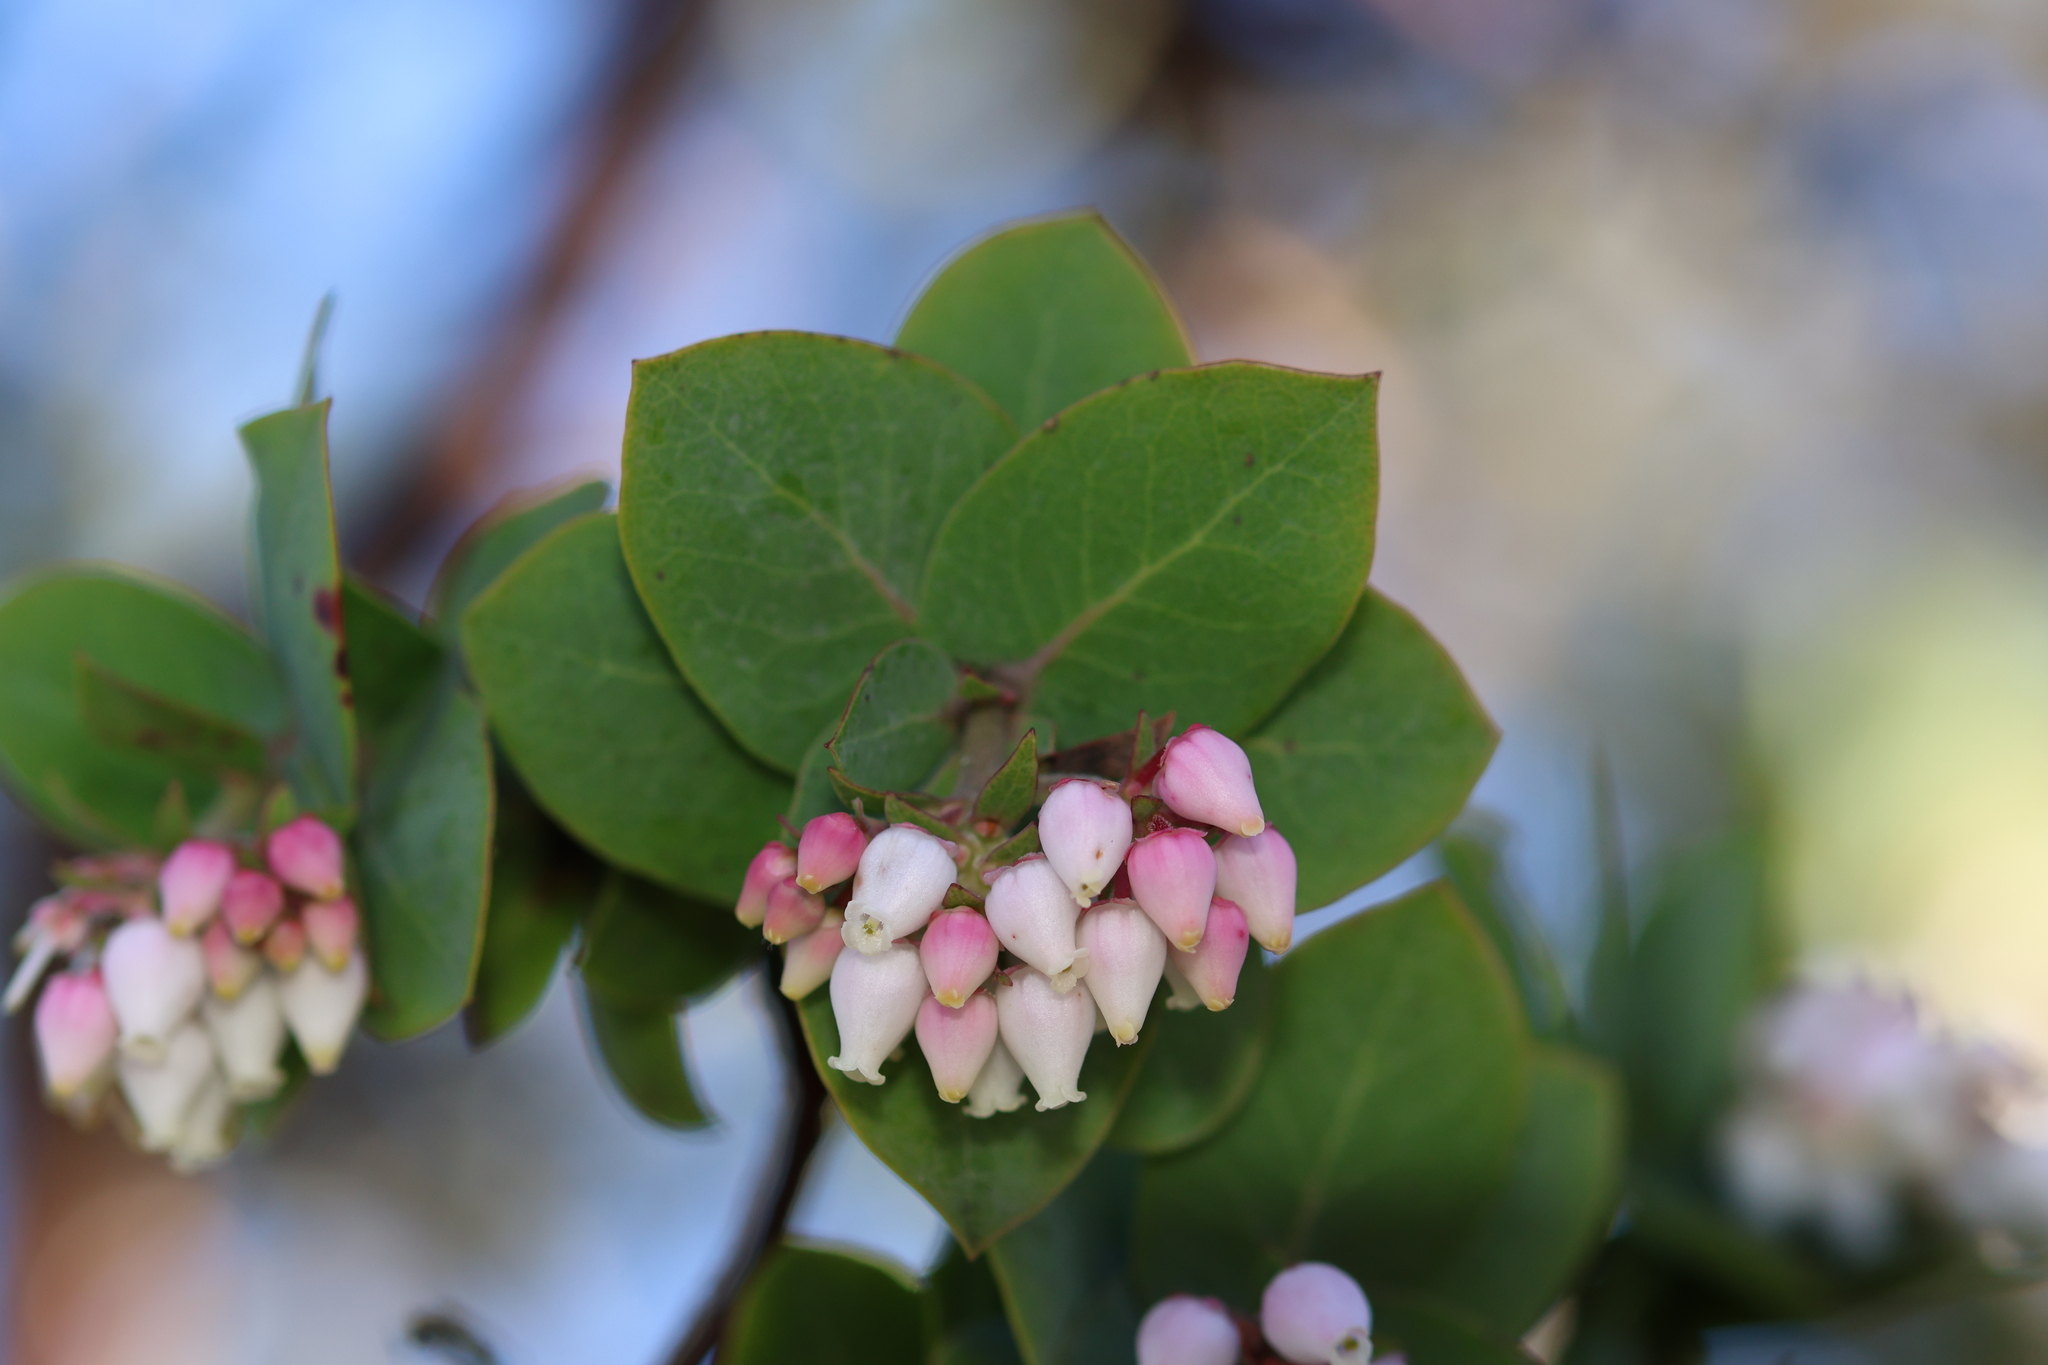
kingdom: Plantae
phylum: Tracheophyta
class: Magnoliopsida
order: Ericales
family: Ericaceae
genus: Arctostaphylos
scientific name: Arctostaphylos pallida
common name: Pallid manzanita
